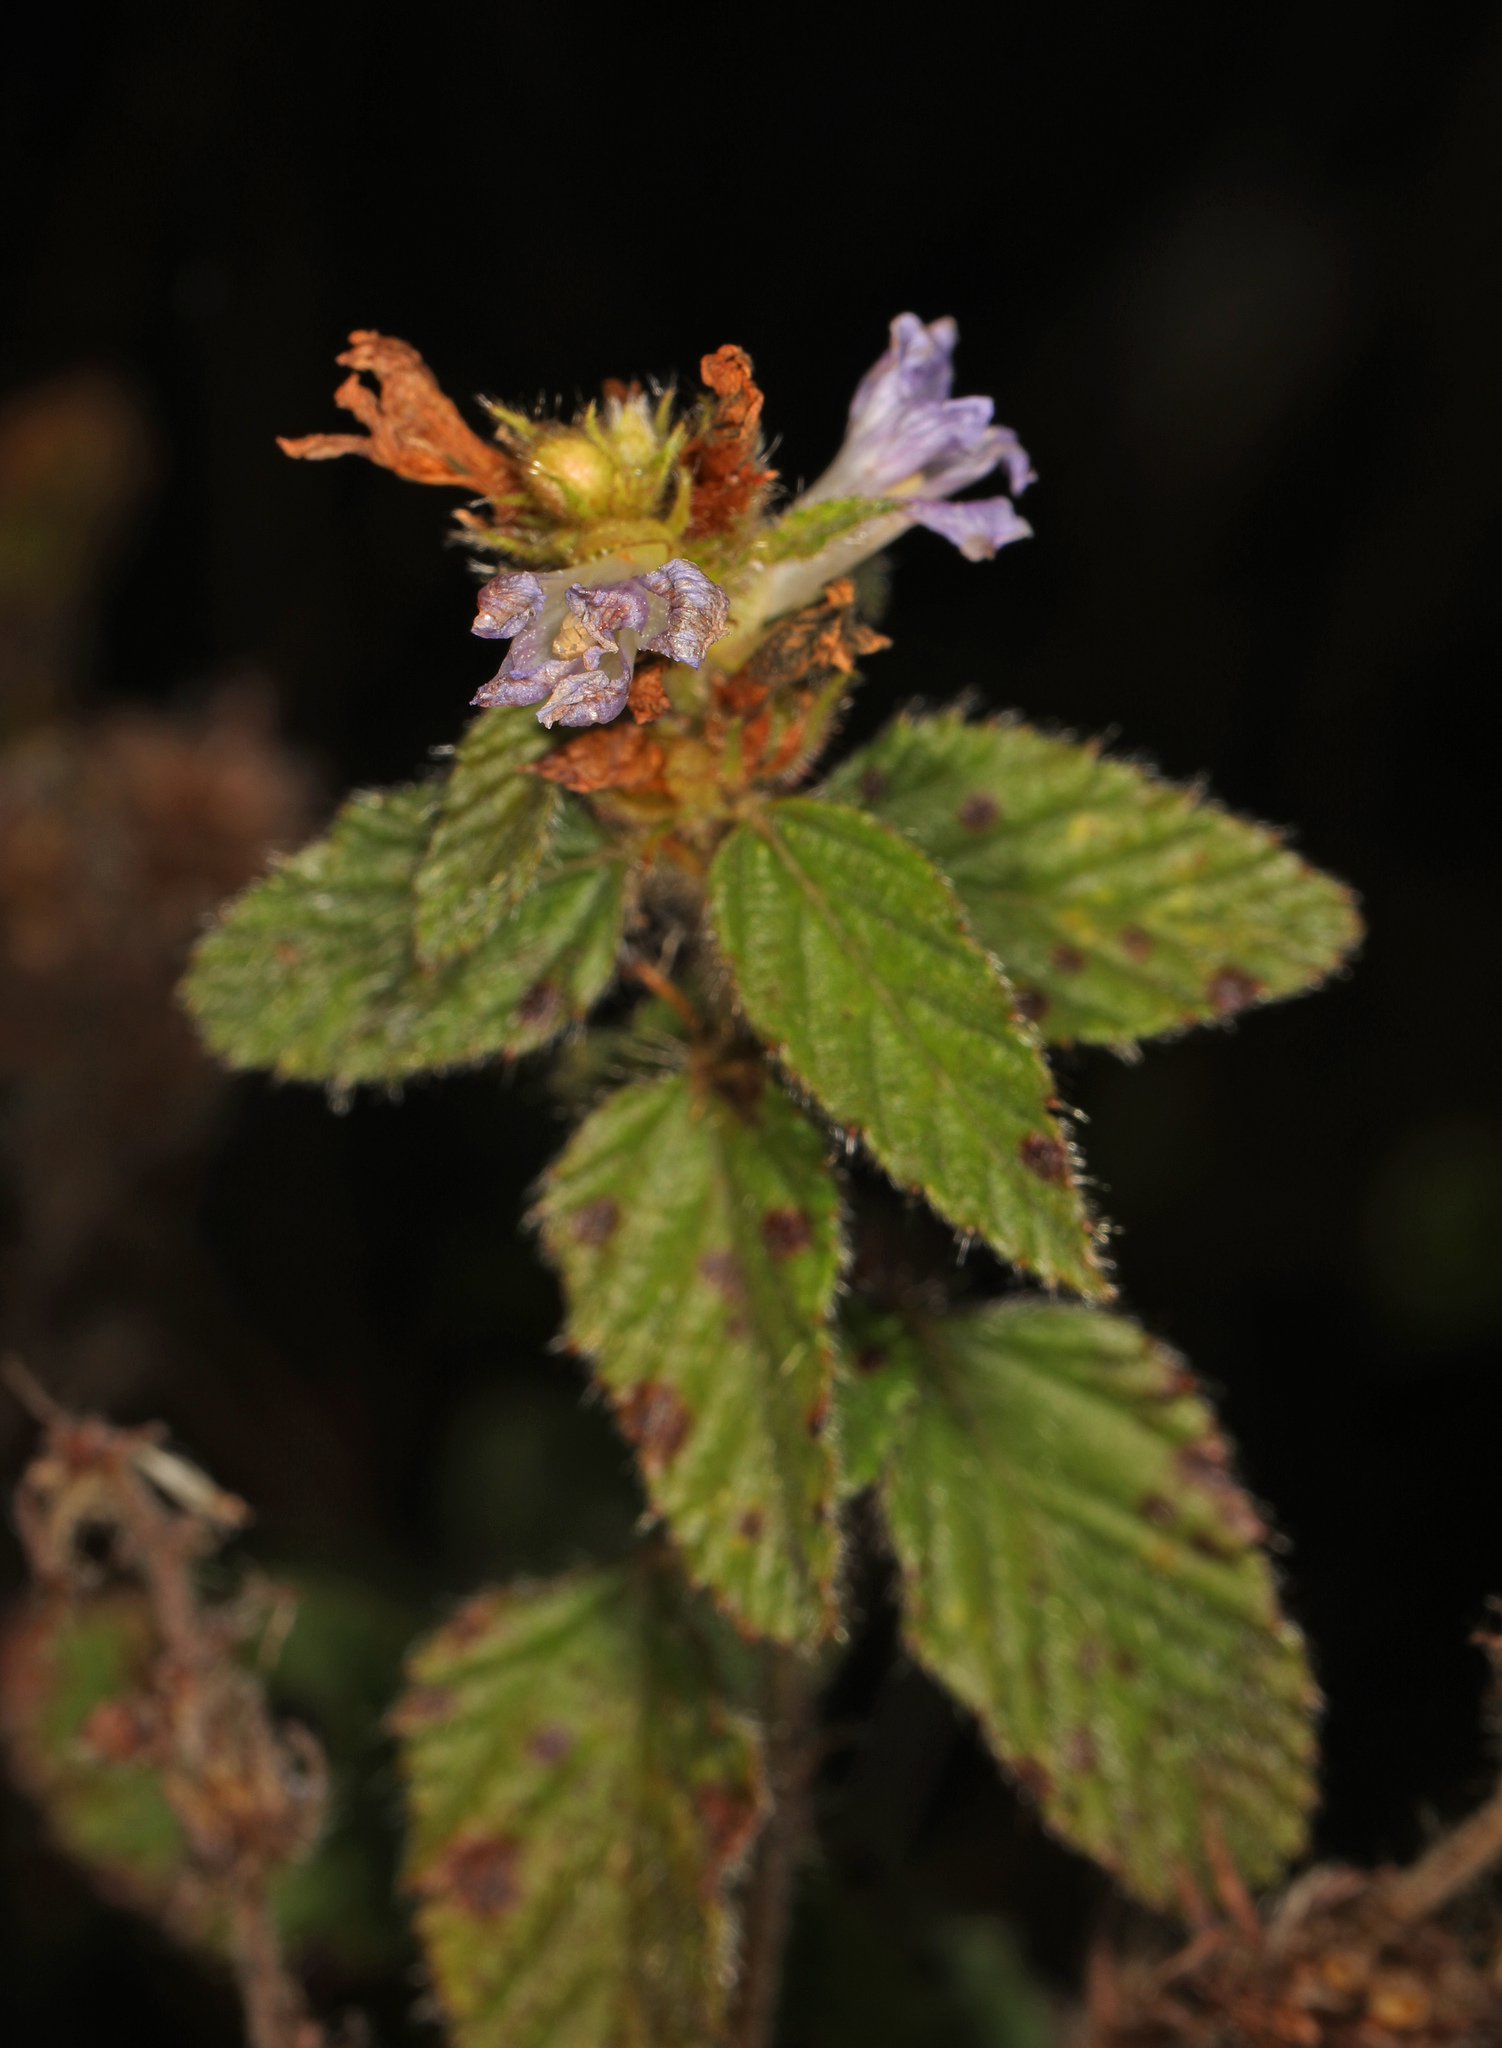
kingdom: Plantae
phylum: Tracheophyta
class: Magnoliopsida
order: Malvales
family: Malvaceae
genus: Melochia
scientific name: Melochia spicata
